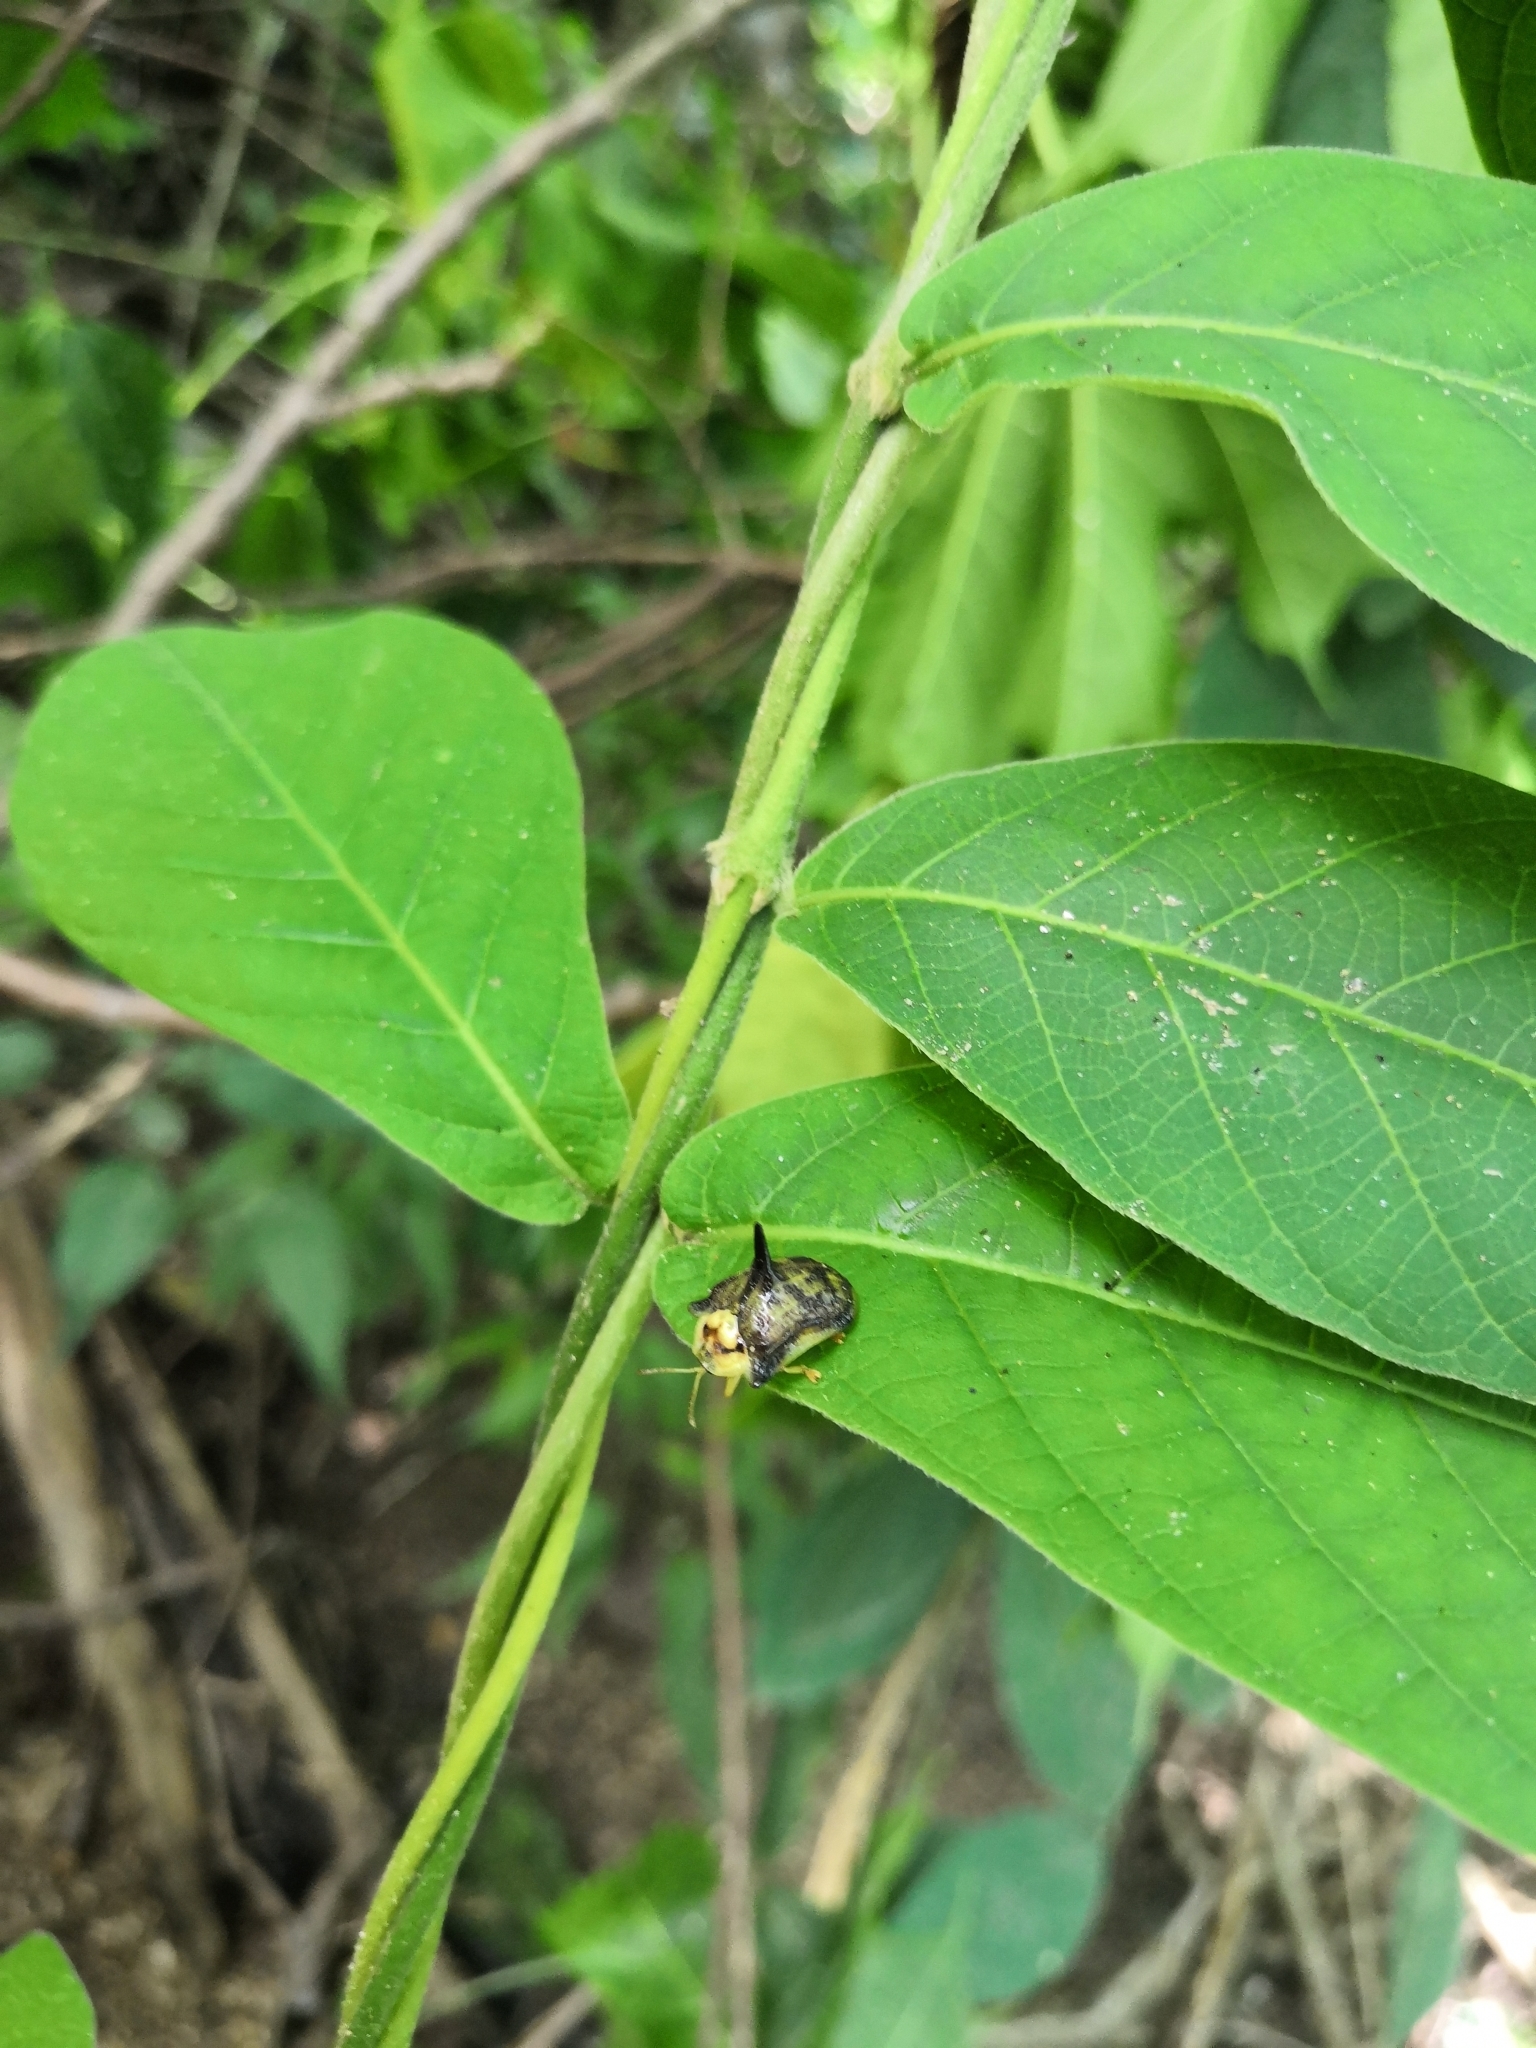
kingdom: Animalia
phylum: Arthropoda
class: Insecta
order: Coleoptera
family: Chrysomelidae
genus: Dorynota
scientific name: Dorynota aurita
